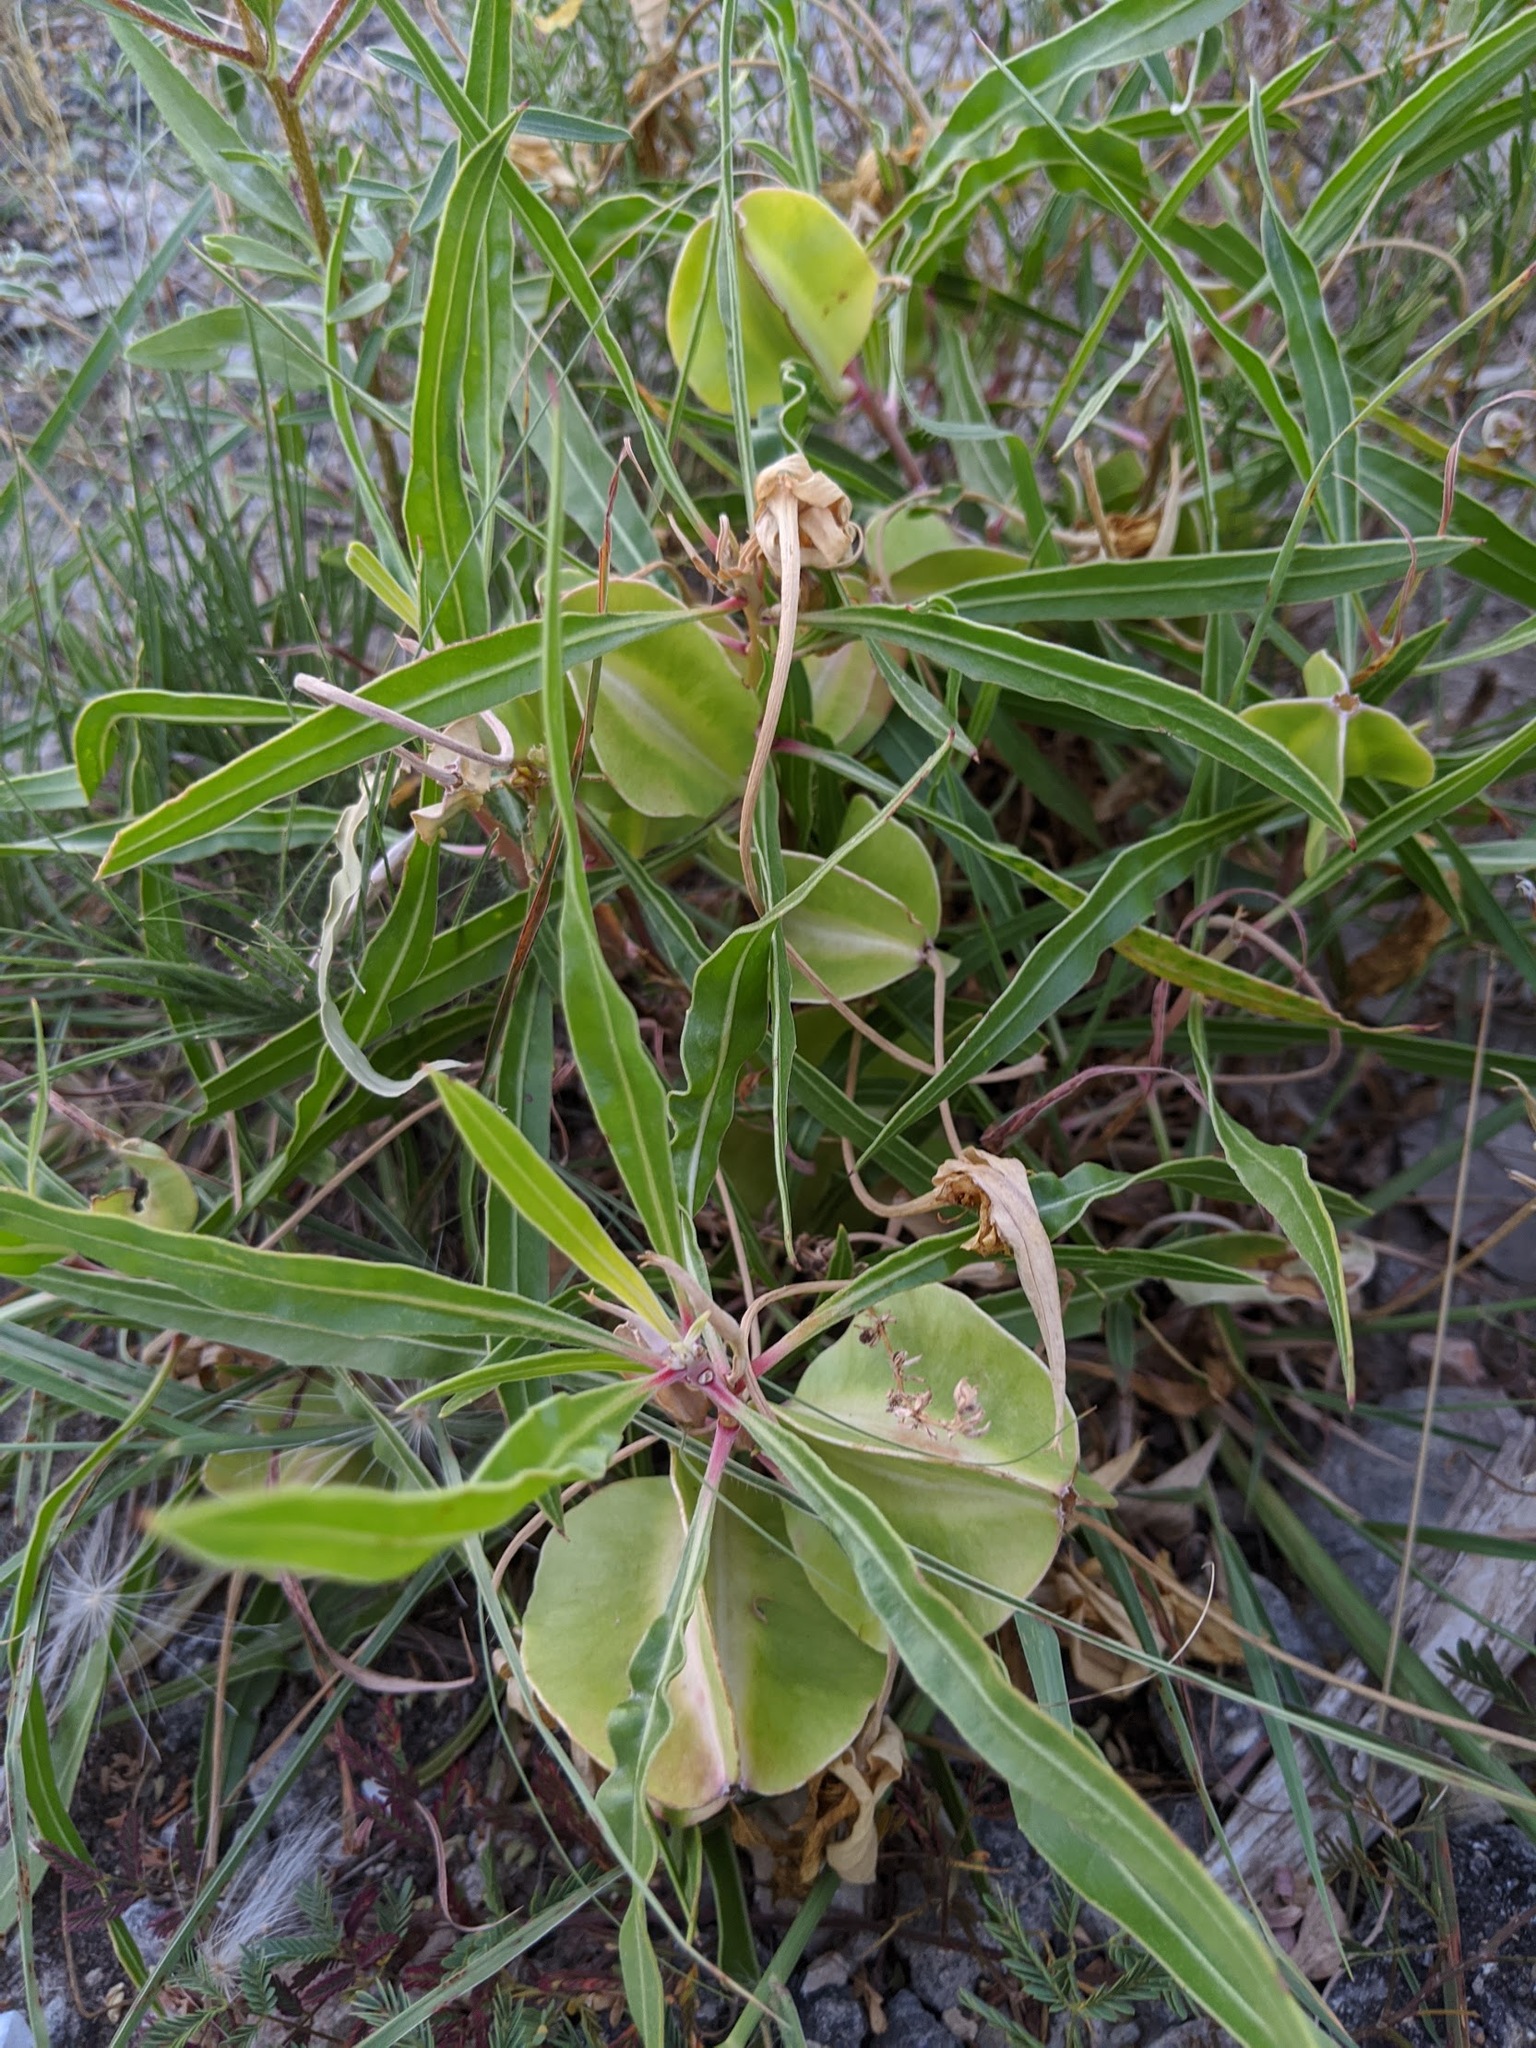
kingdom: Plantae
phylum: Tracheophyta
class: Magnoliopsida
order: Myrtales
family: Onagraceae
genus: Oenothera
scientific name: Oenothera macrocarpa
